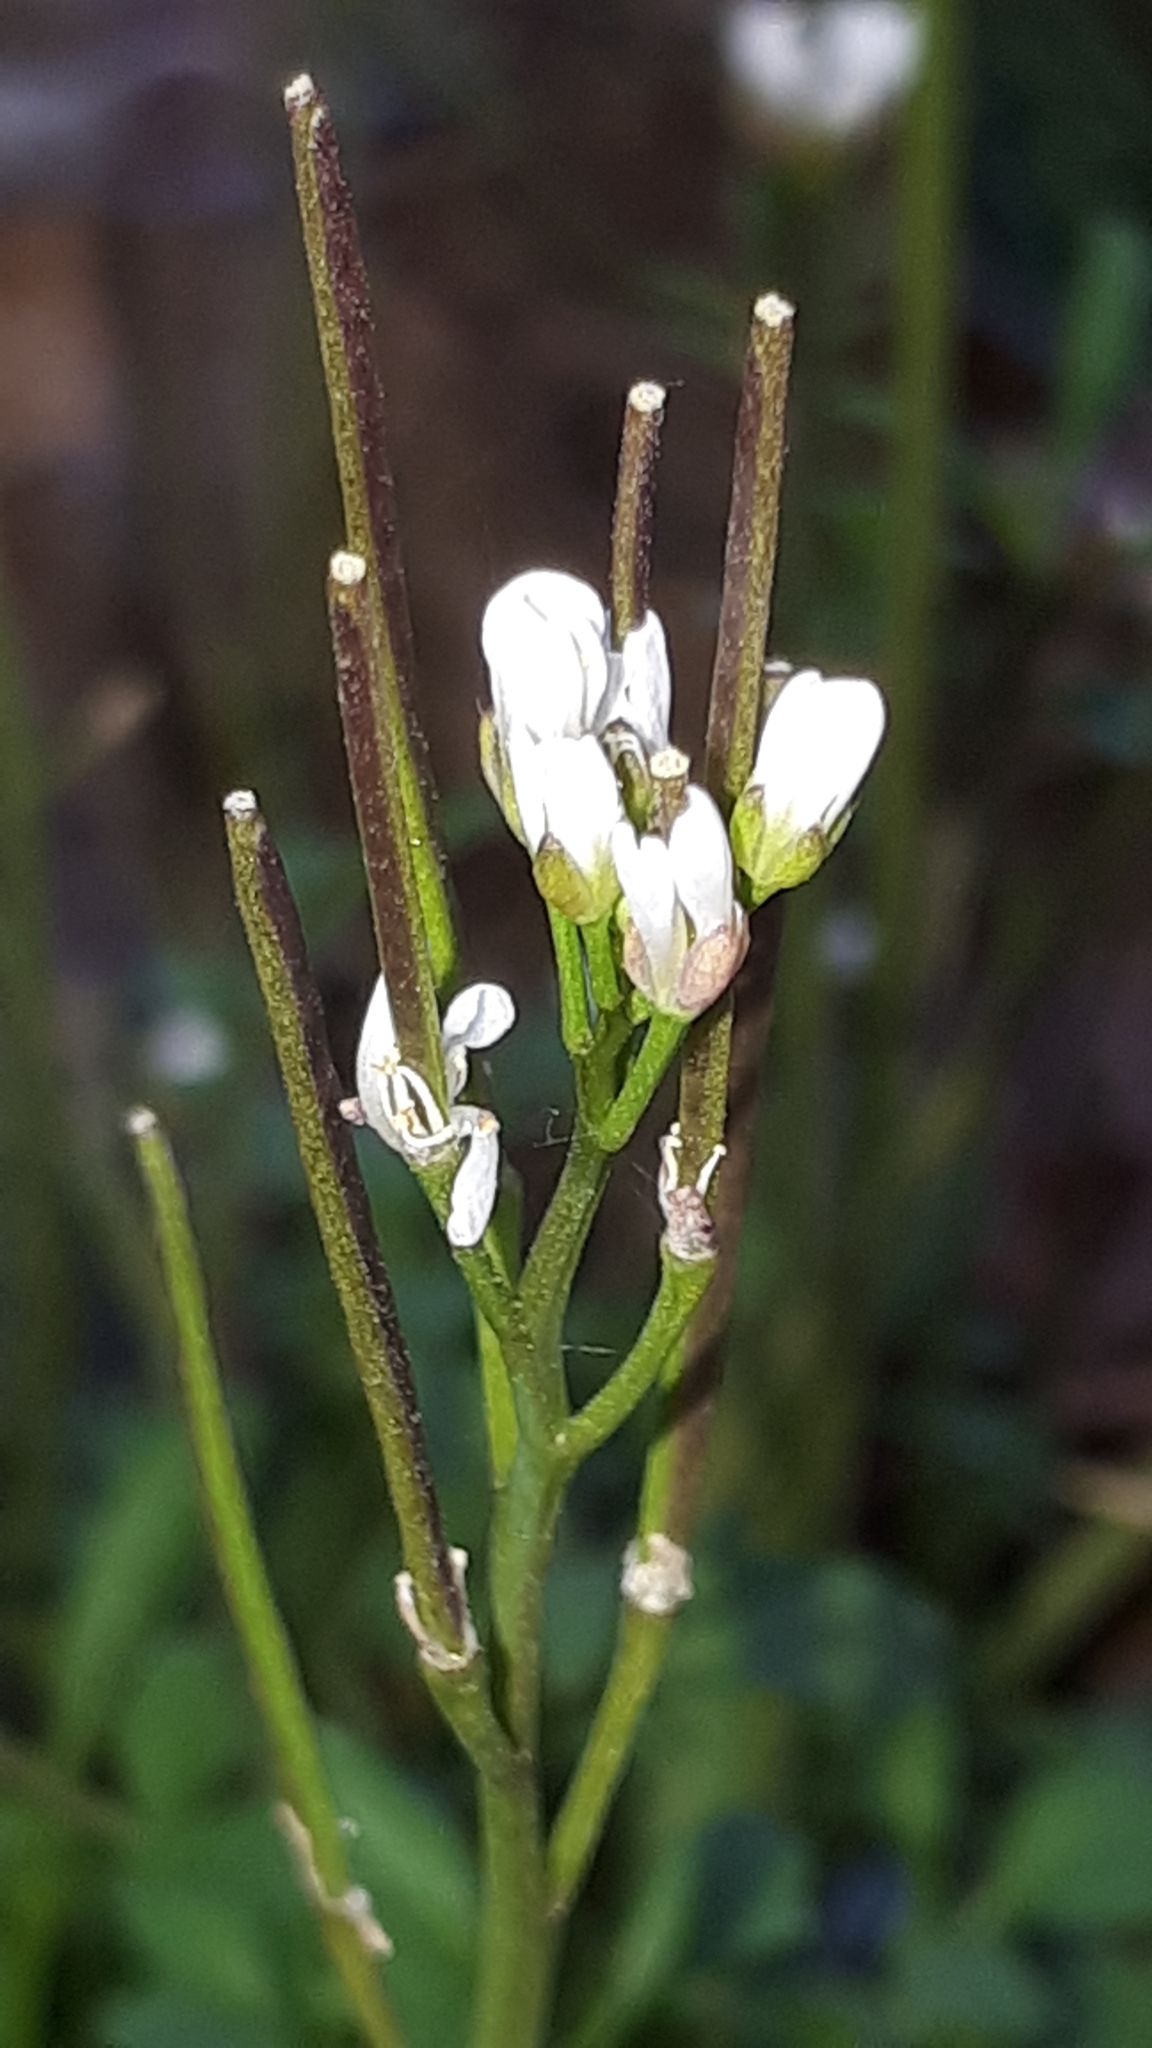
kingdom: Plantae
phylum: Tracheophyta
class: Magnoliopsida
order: Brassicales
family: Brassicaceae
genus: Cardamine
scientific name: Cardamine hirsuta
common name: Hairy bittercress
